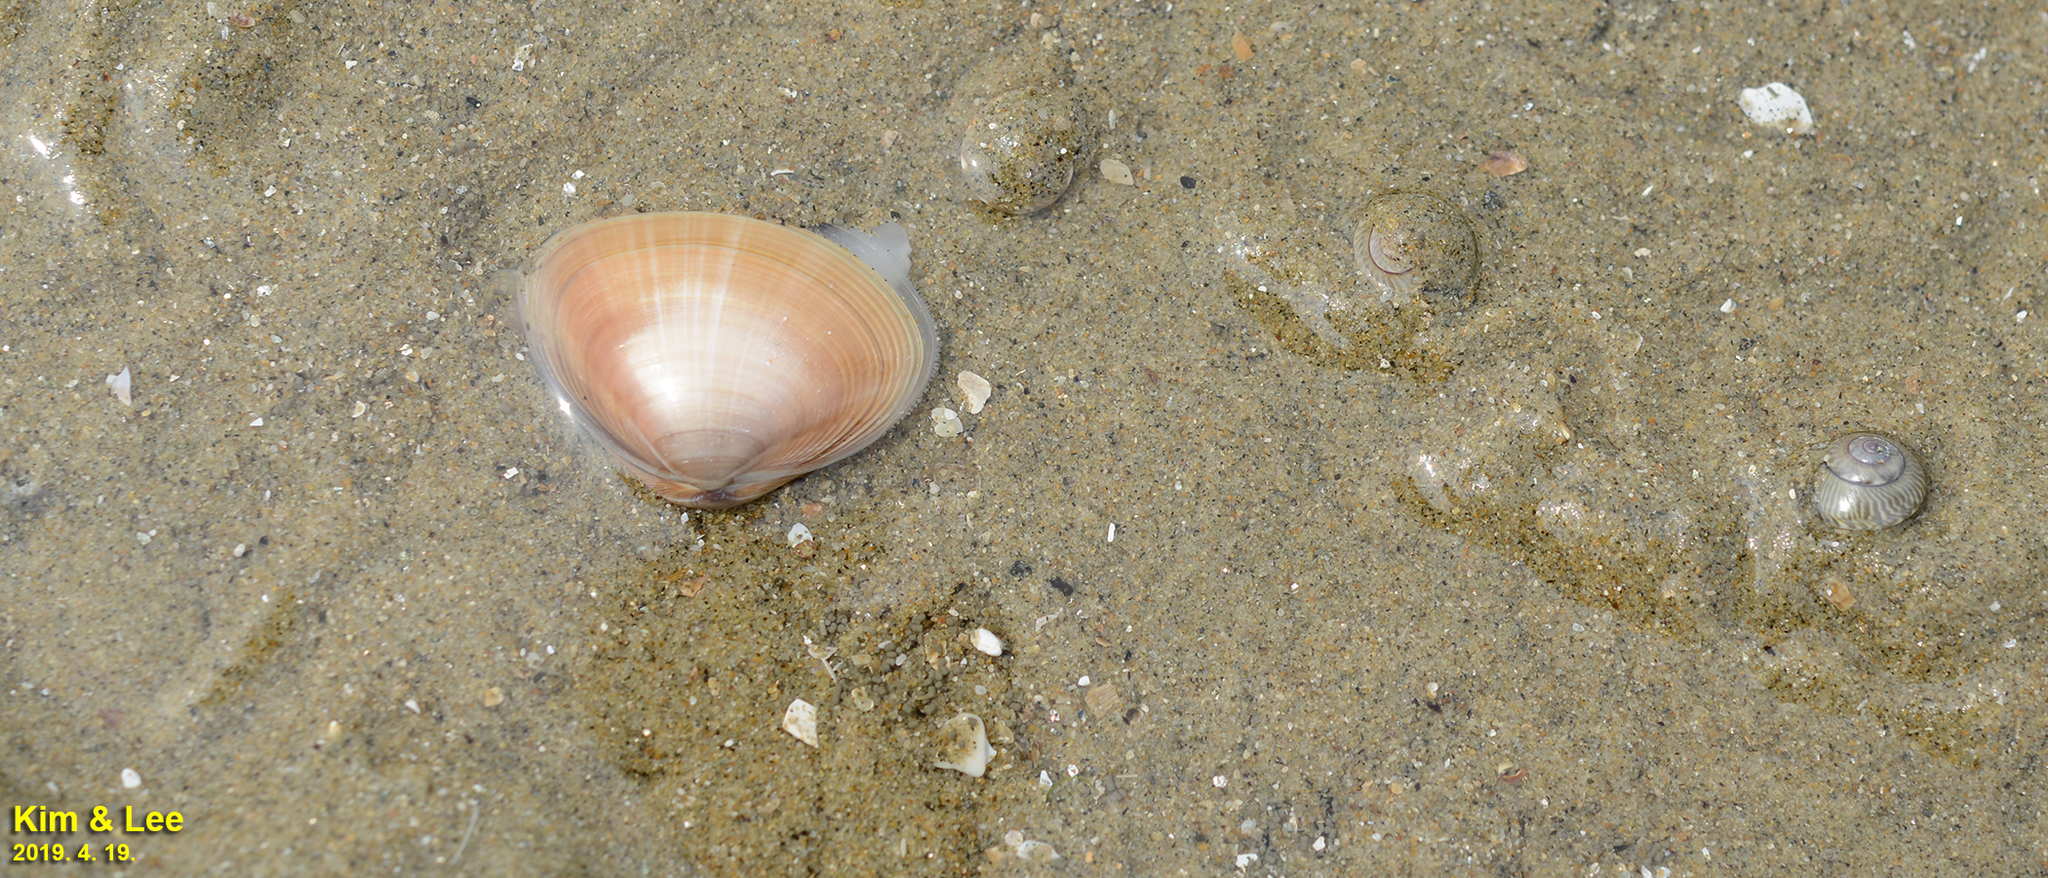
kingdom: Animalia
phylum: Mollusca
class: Bivalvia
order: Venerida
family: Mactridae
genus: Mactra
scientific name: Mactra chinensis
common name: Chinese surf clam
